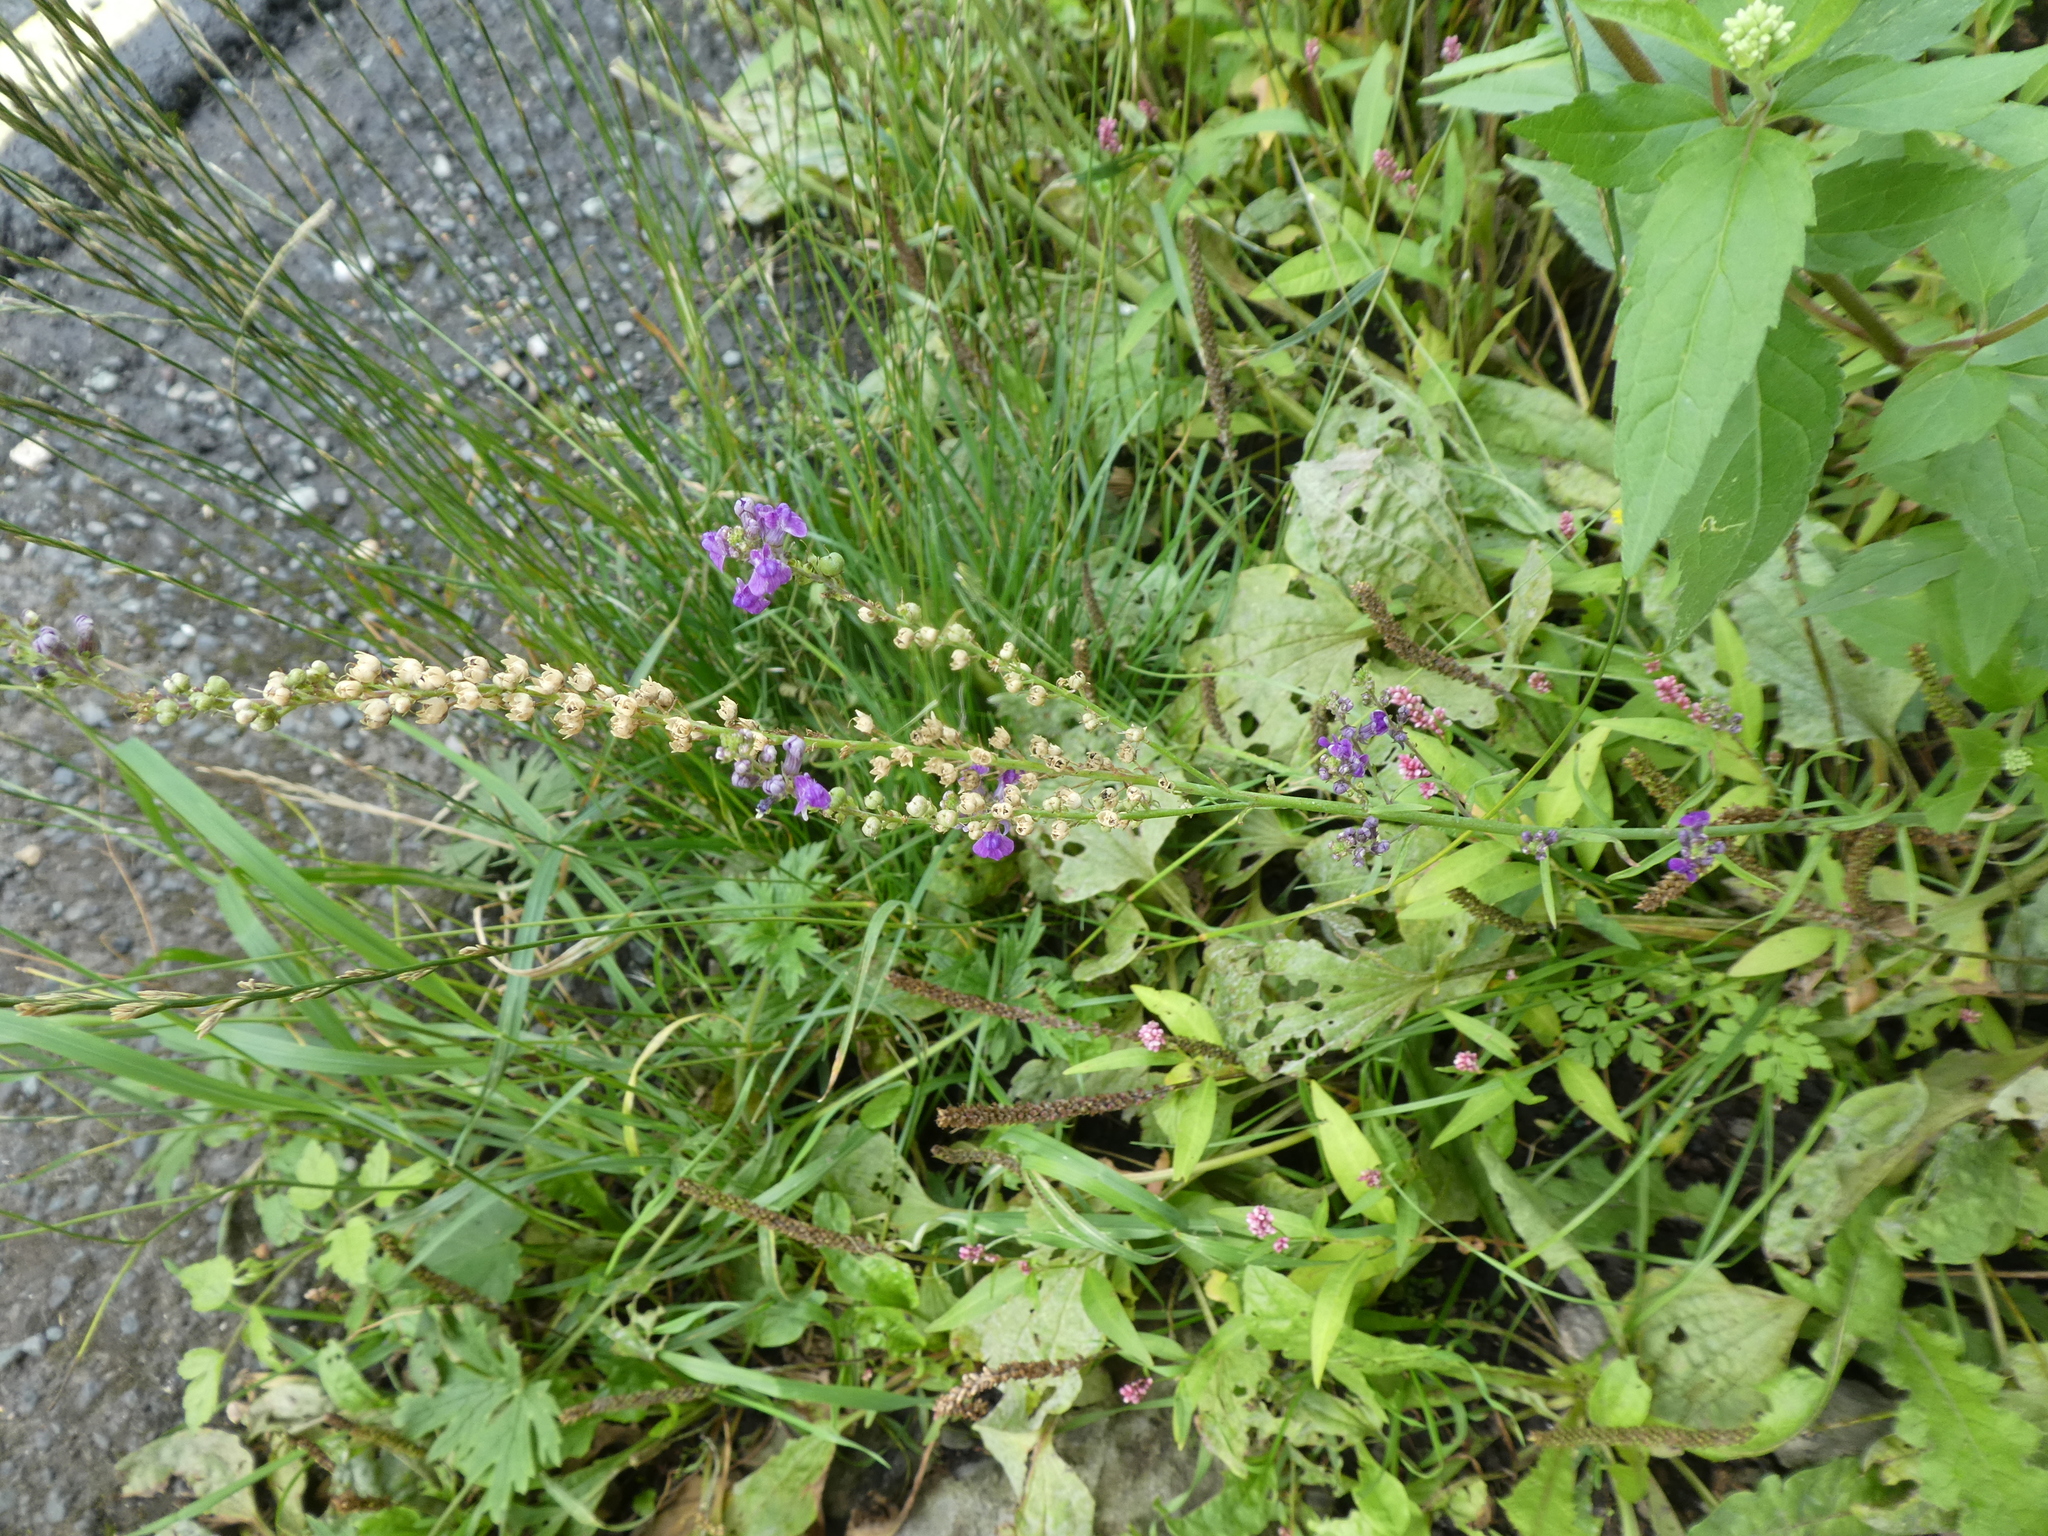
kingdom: Plantae
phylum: Tracheophyta
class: Magnoliopsida
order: Lamiales
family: Plantaginaceae
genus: Linaria
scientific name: Linaria purpurea
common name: Purple toadflax
